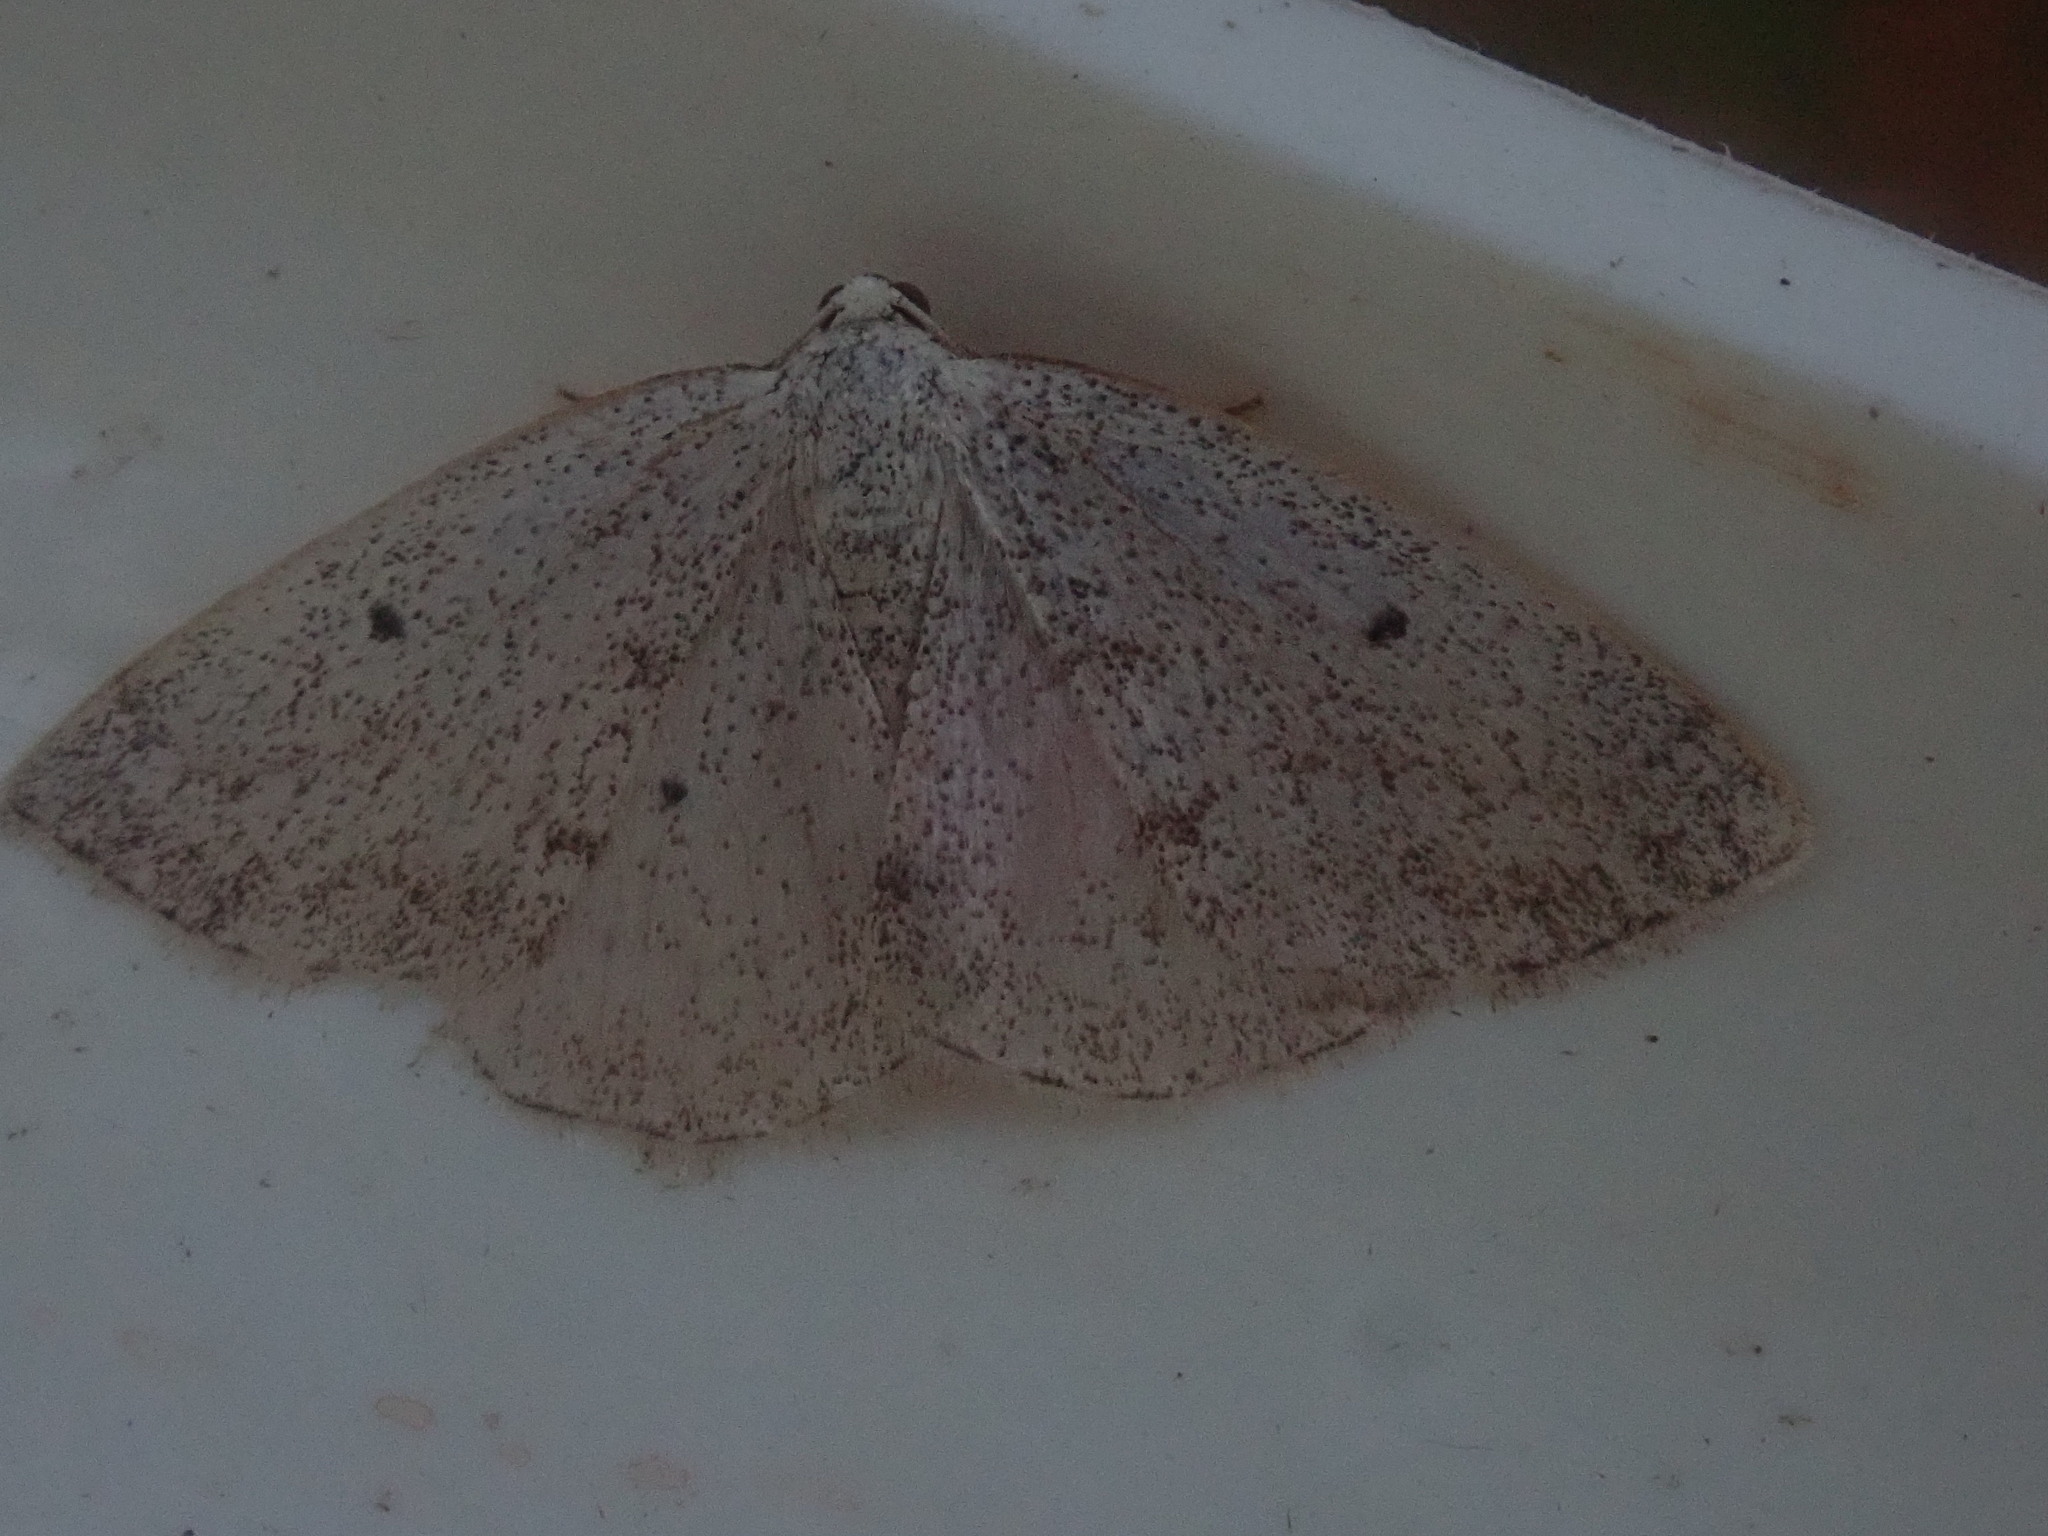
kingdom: Animalia
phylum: Arthropoda
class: Insecta
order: Lepidoptera
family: Geometridae
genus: Lomographa
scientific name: Lomographa glomeraria
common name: Gray spring moth
